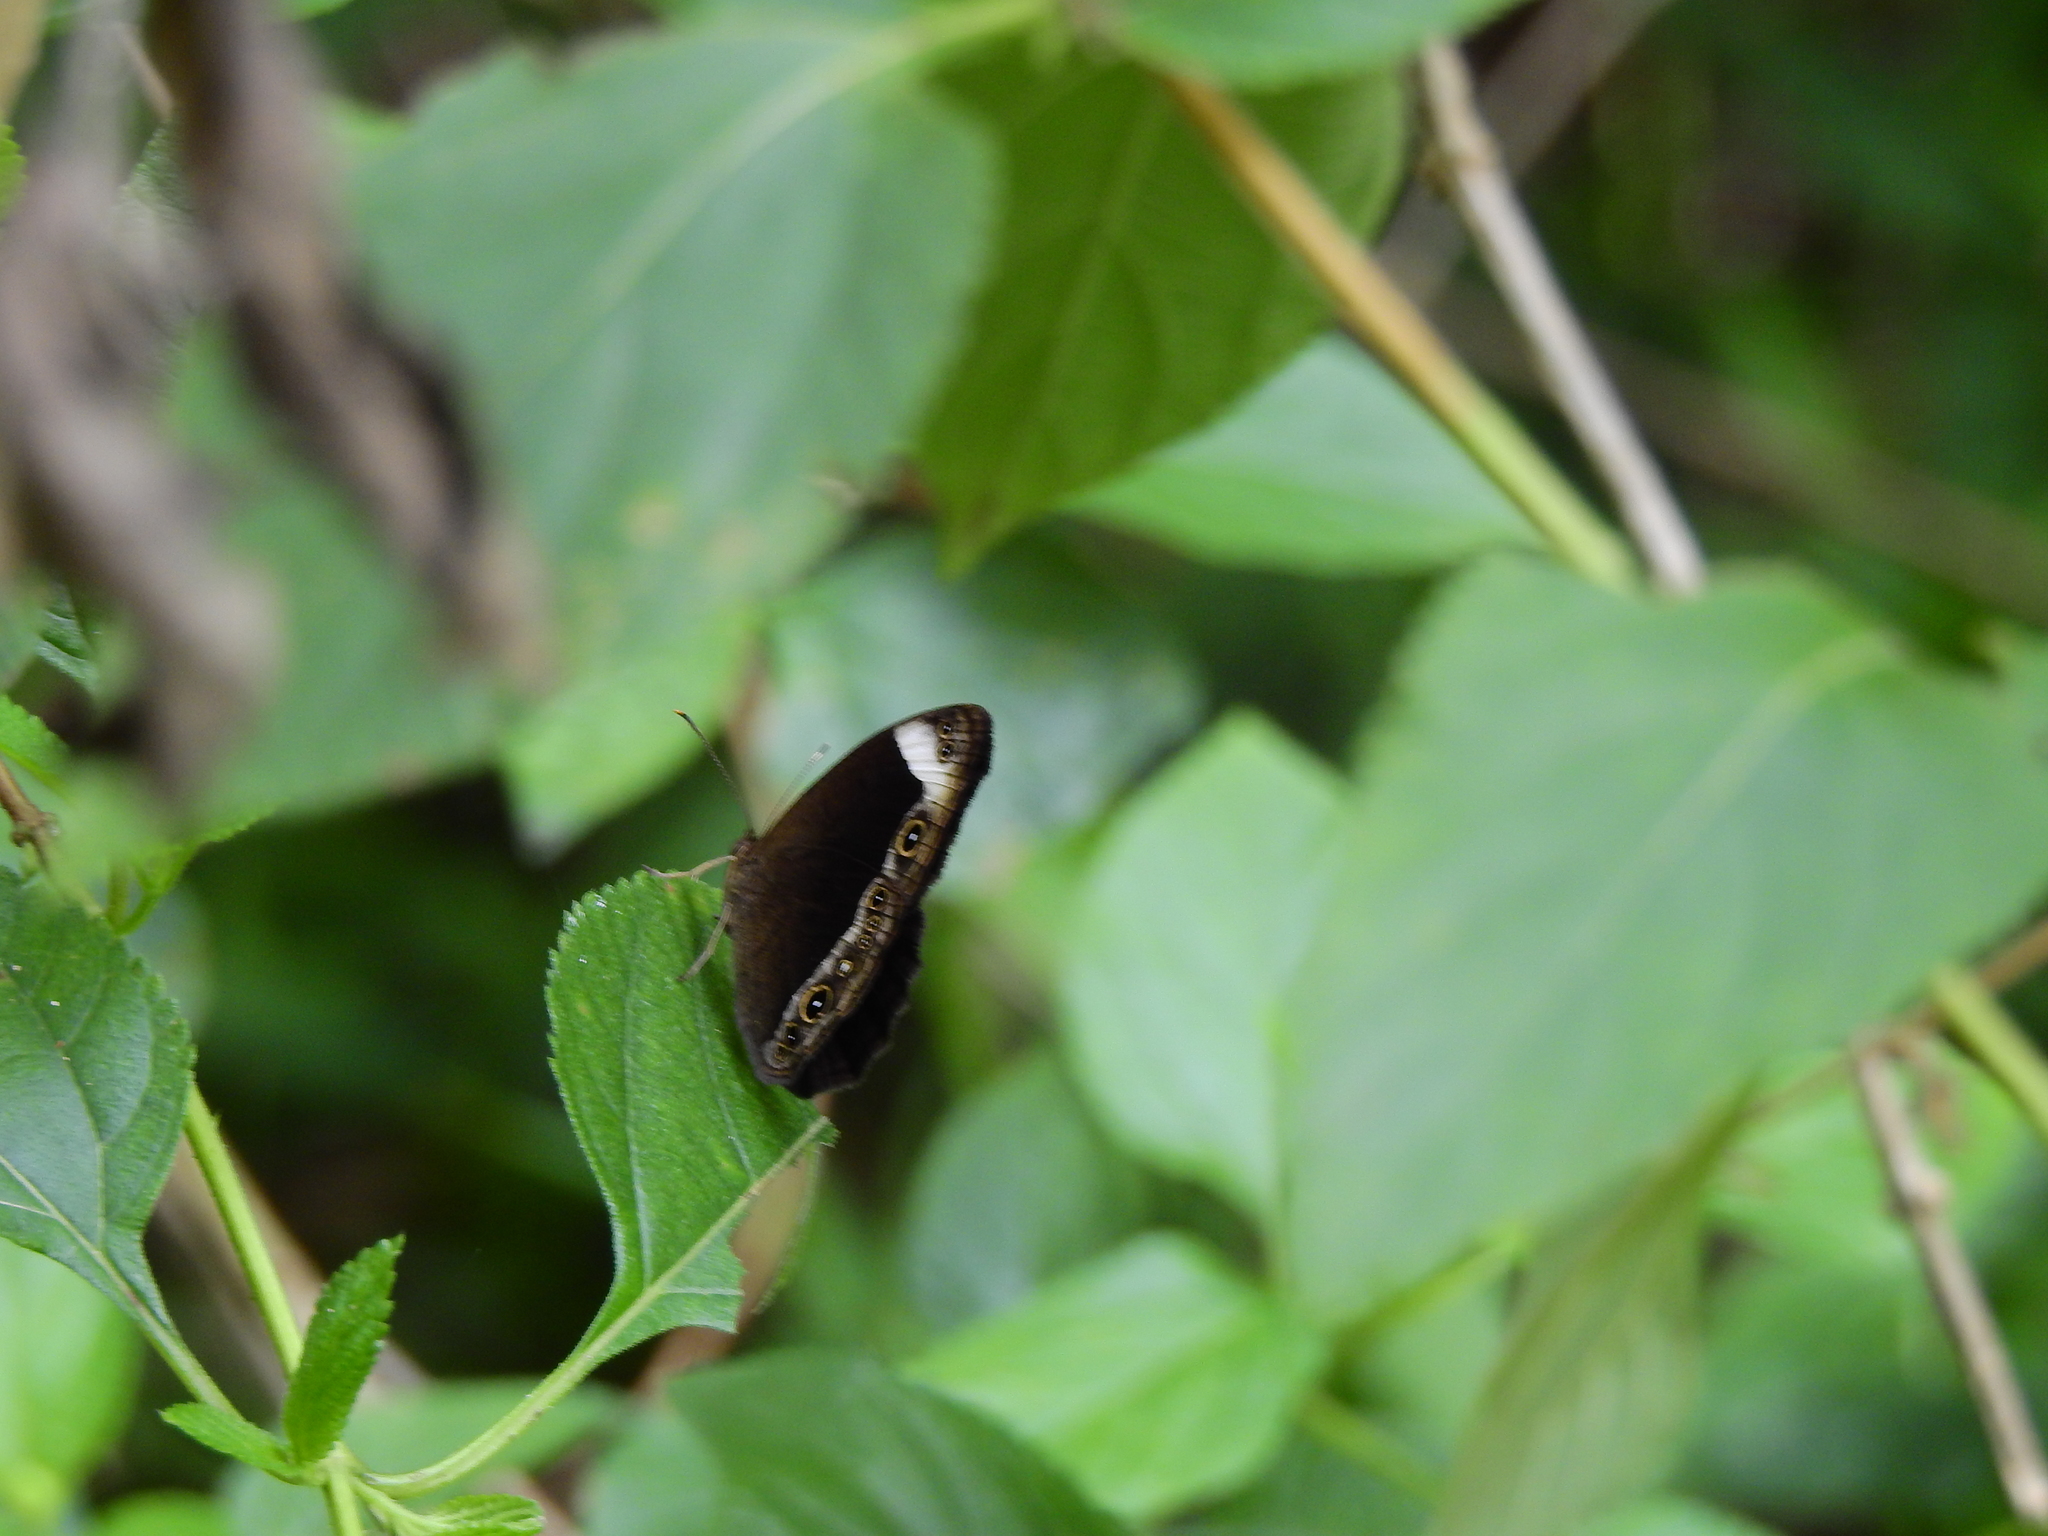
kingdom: Animalia
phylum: Arthropoda
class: Insecta
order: Lepidoptera
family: Nymphalidae
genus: Mycalesis
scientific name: Mycalesis anaxias
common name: White-bar bushbrown
